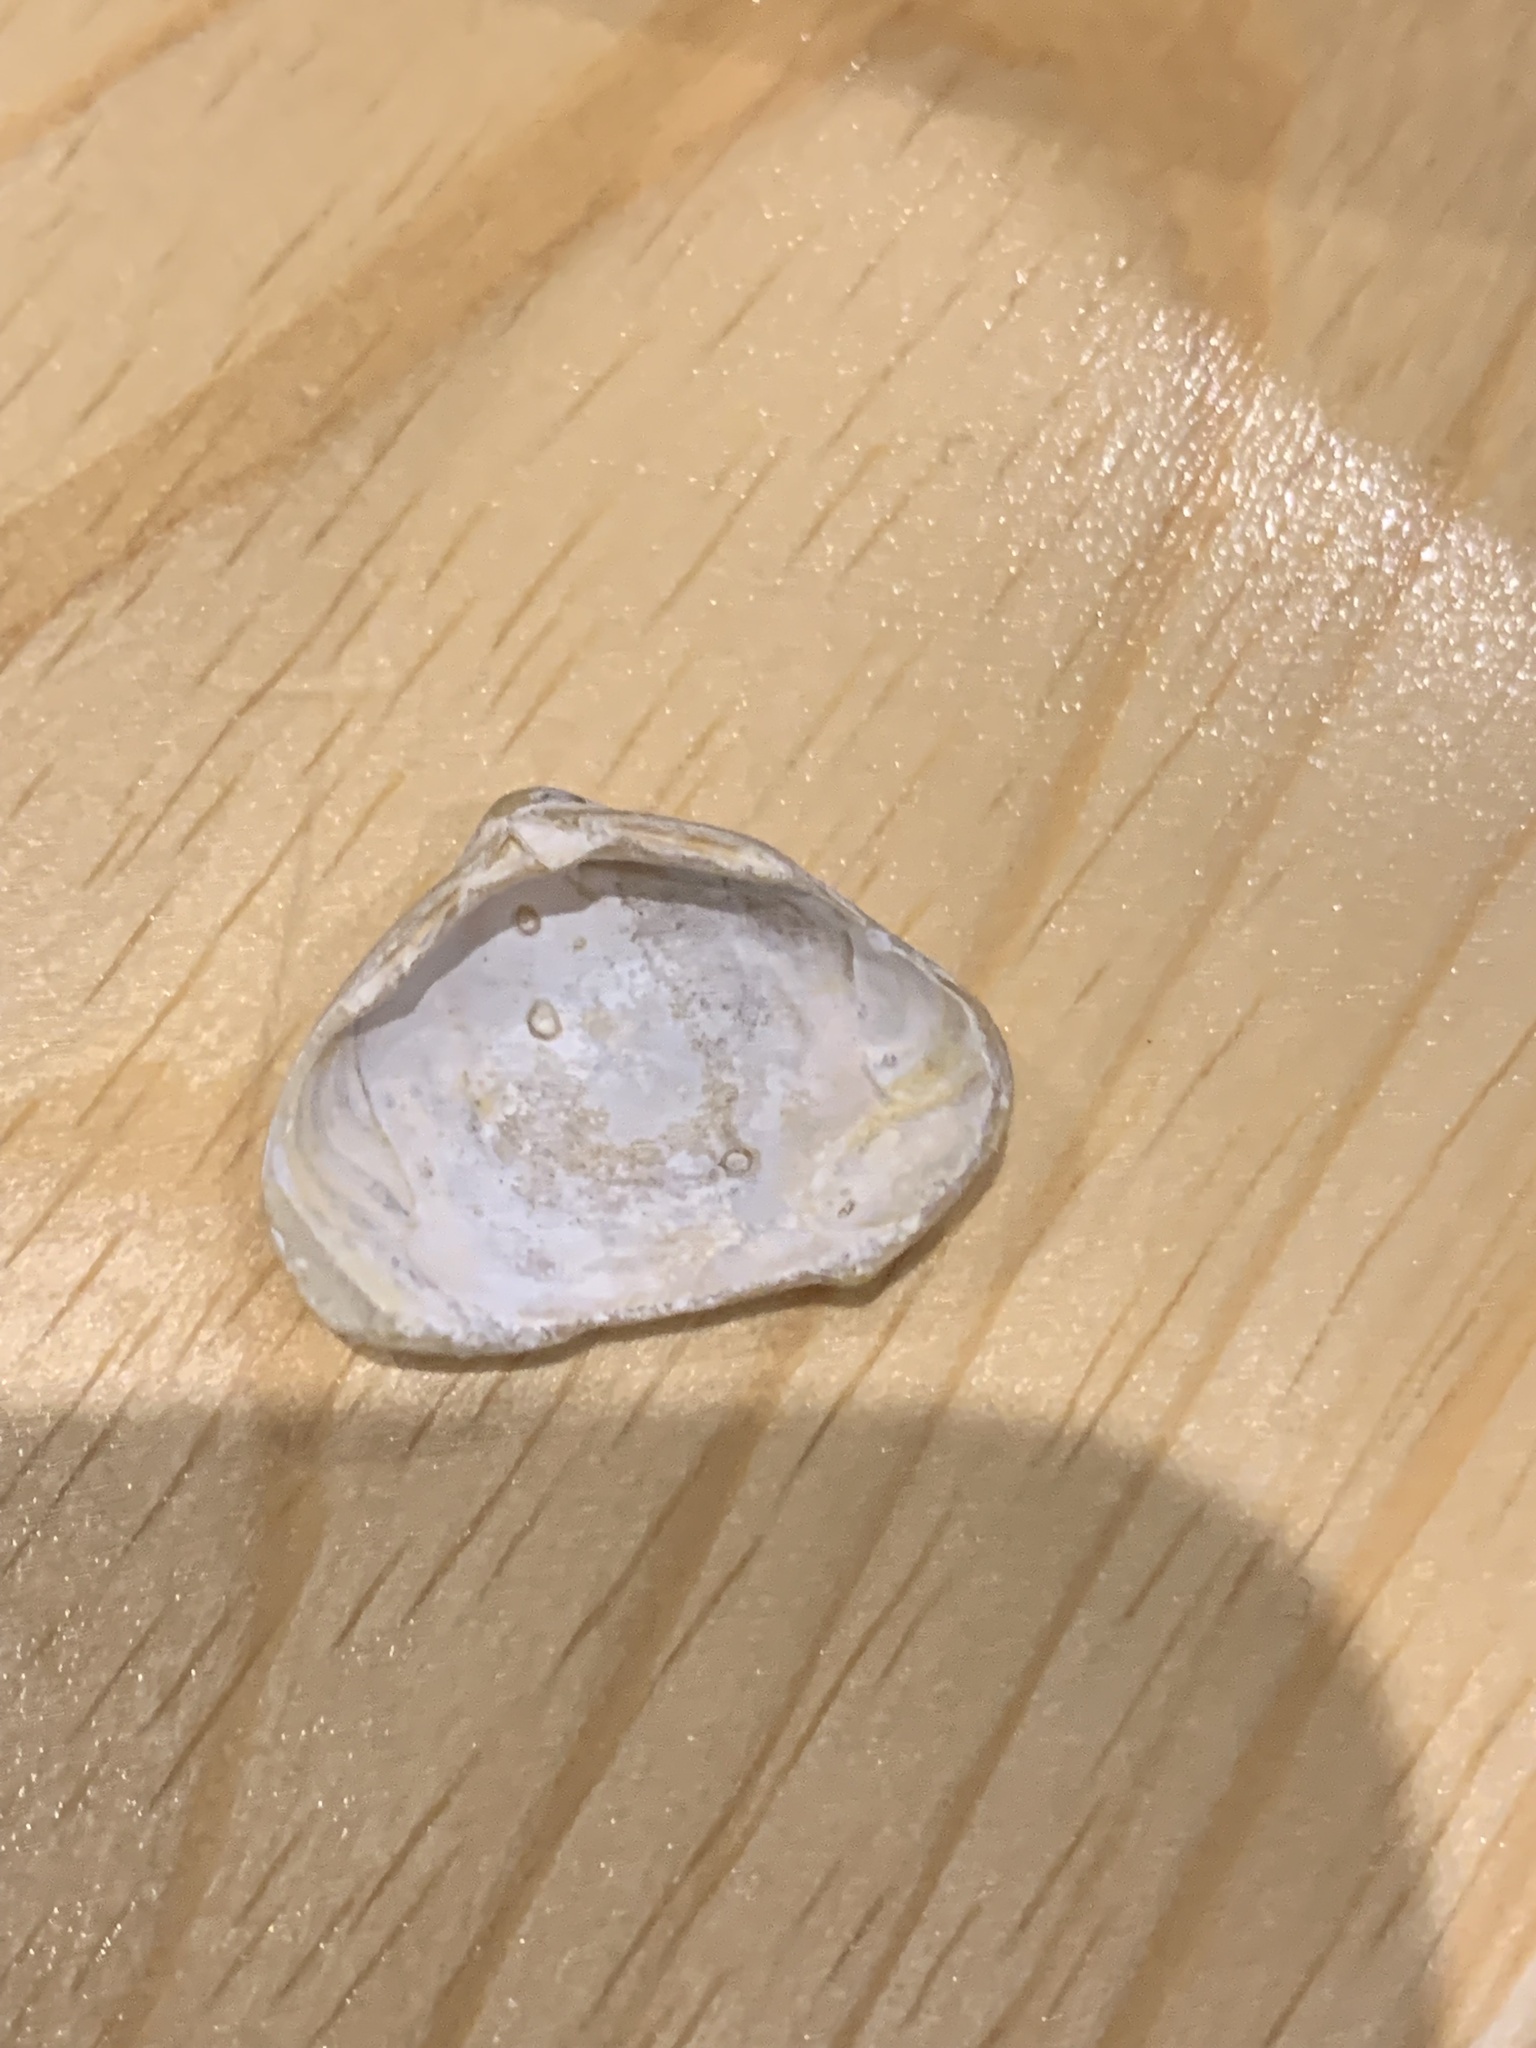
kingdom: Animalia
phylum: Mollusca
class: Bivalvia
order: Venerida
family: Mactridae
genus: Spisula
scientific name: Spisula subtruncata
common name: Cut trough shell
